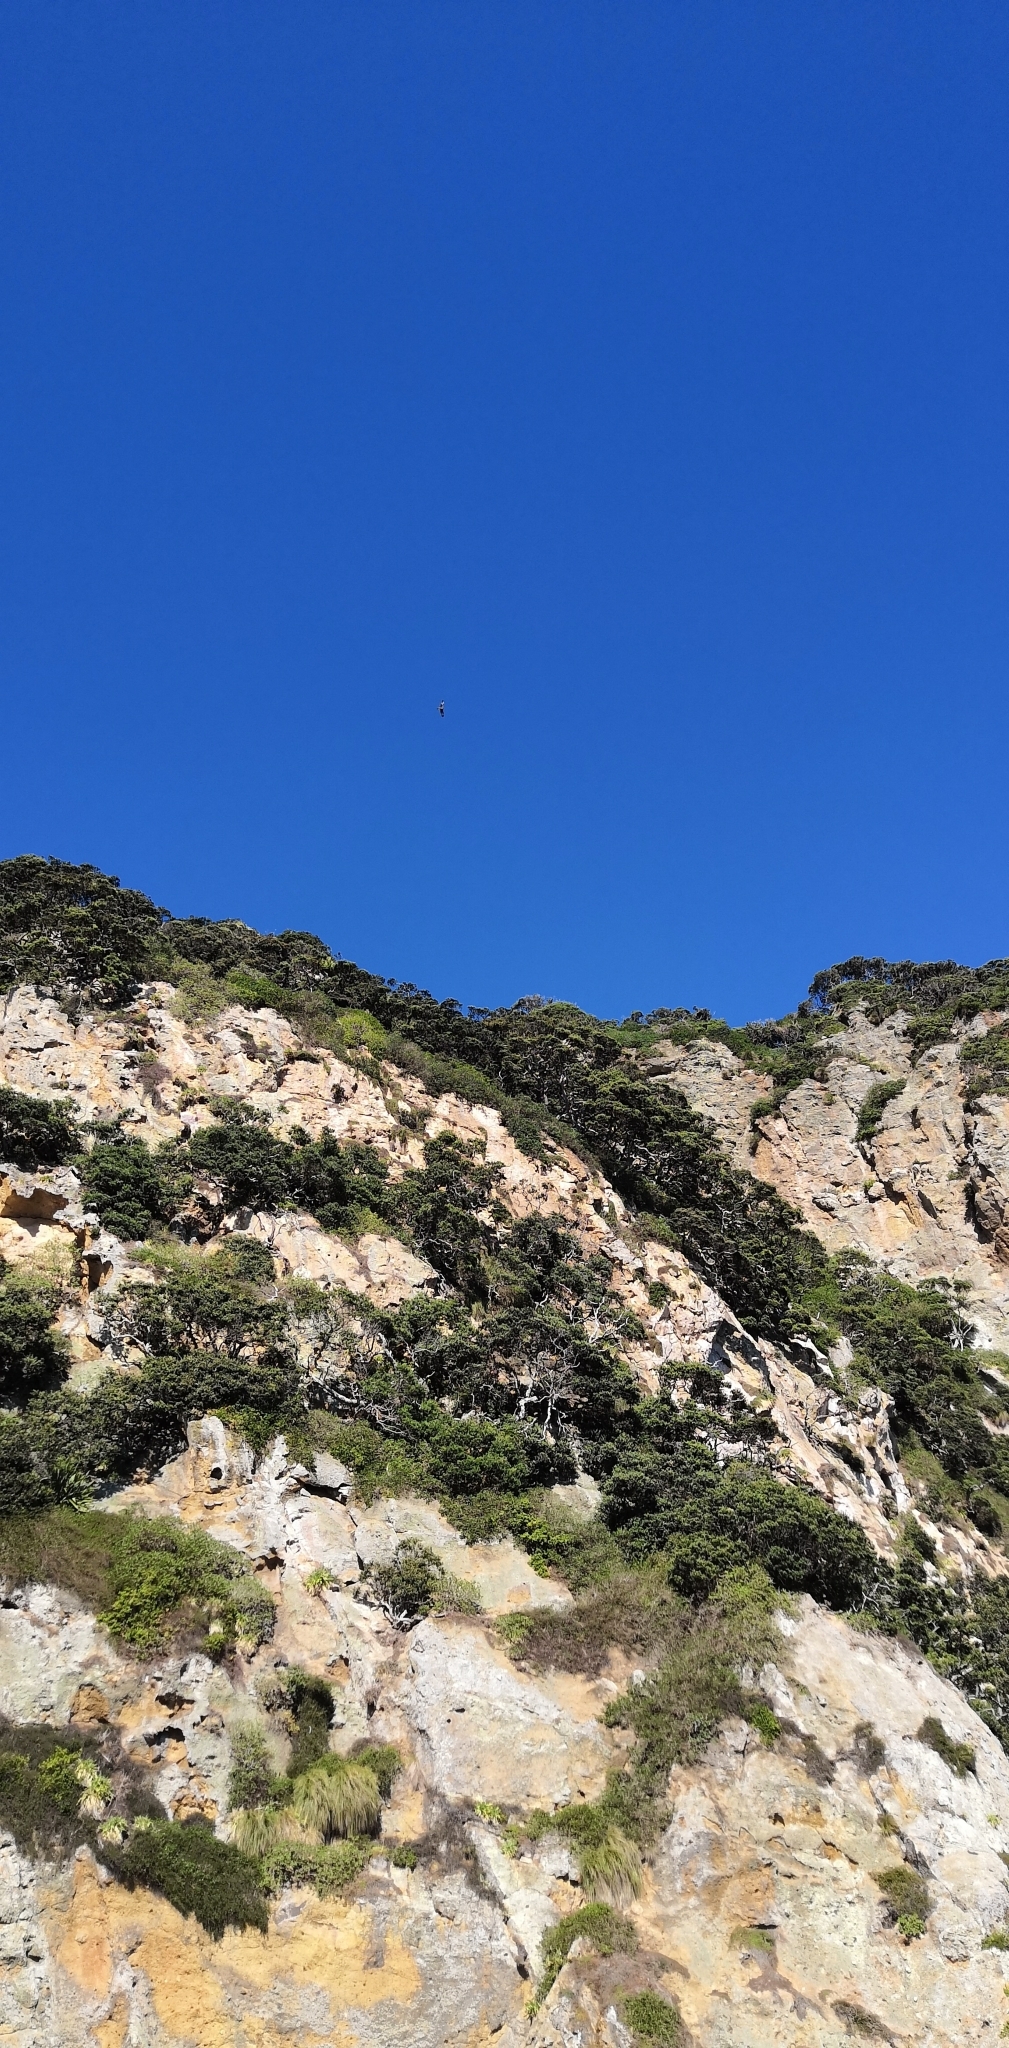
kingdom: Animalia
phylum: Chordata
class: Aves
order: Accipitriformes
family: Accipitridae
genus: Circus
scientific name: Circus approximans
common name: Swamp harrier
